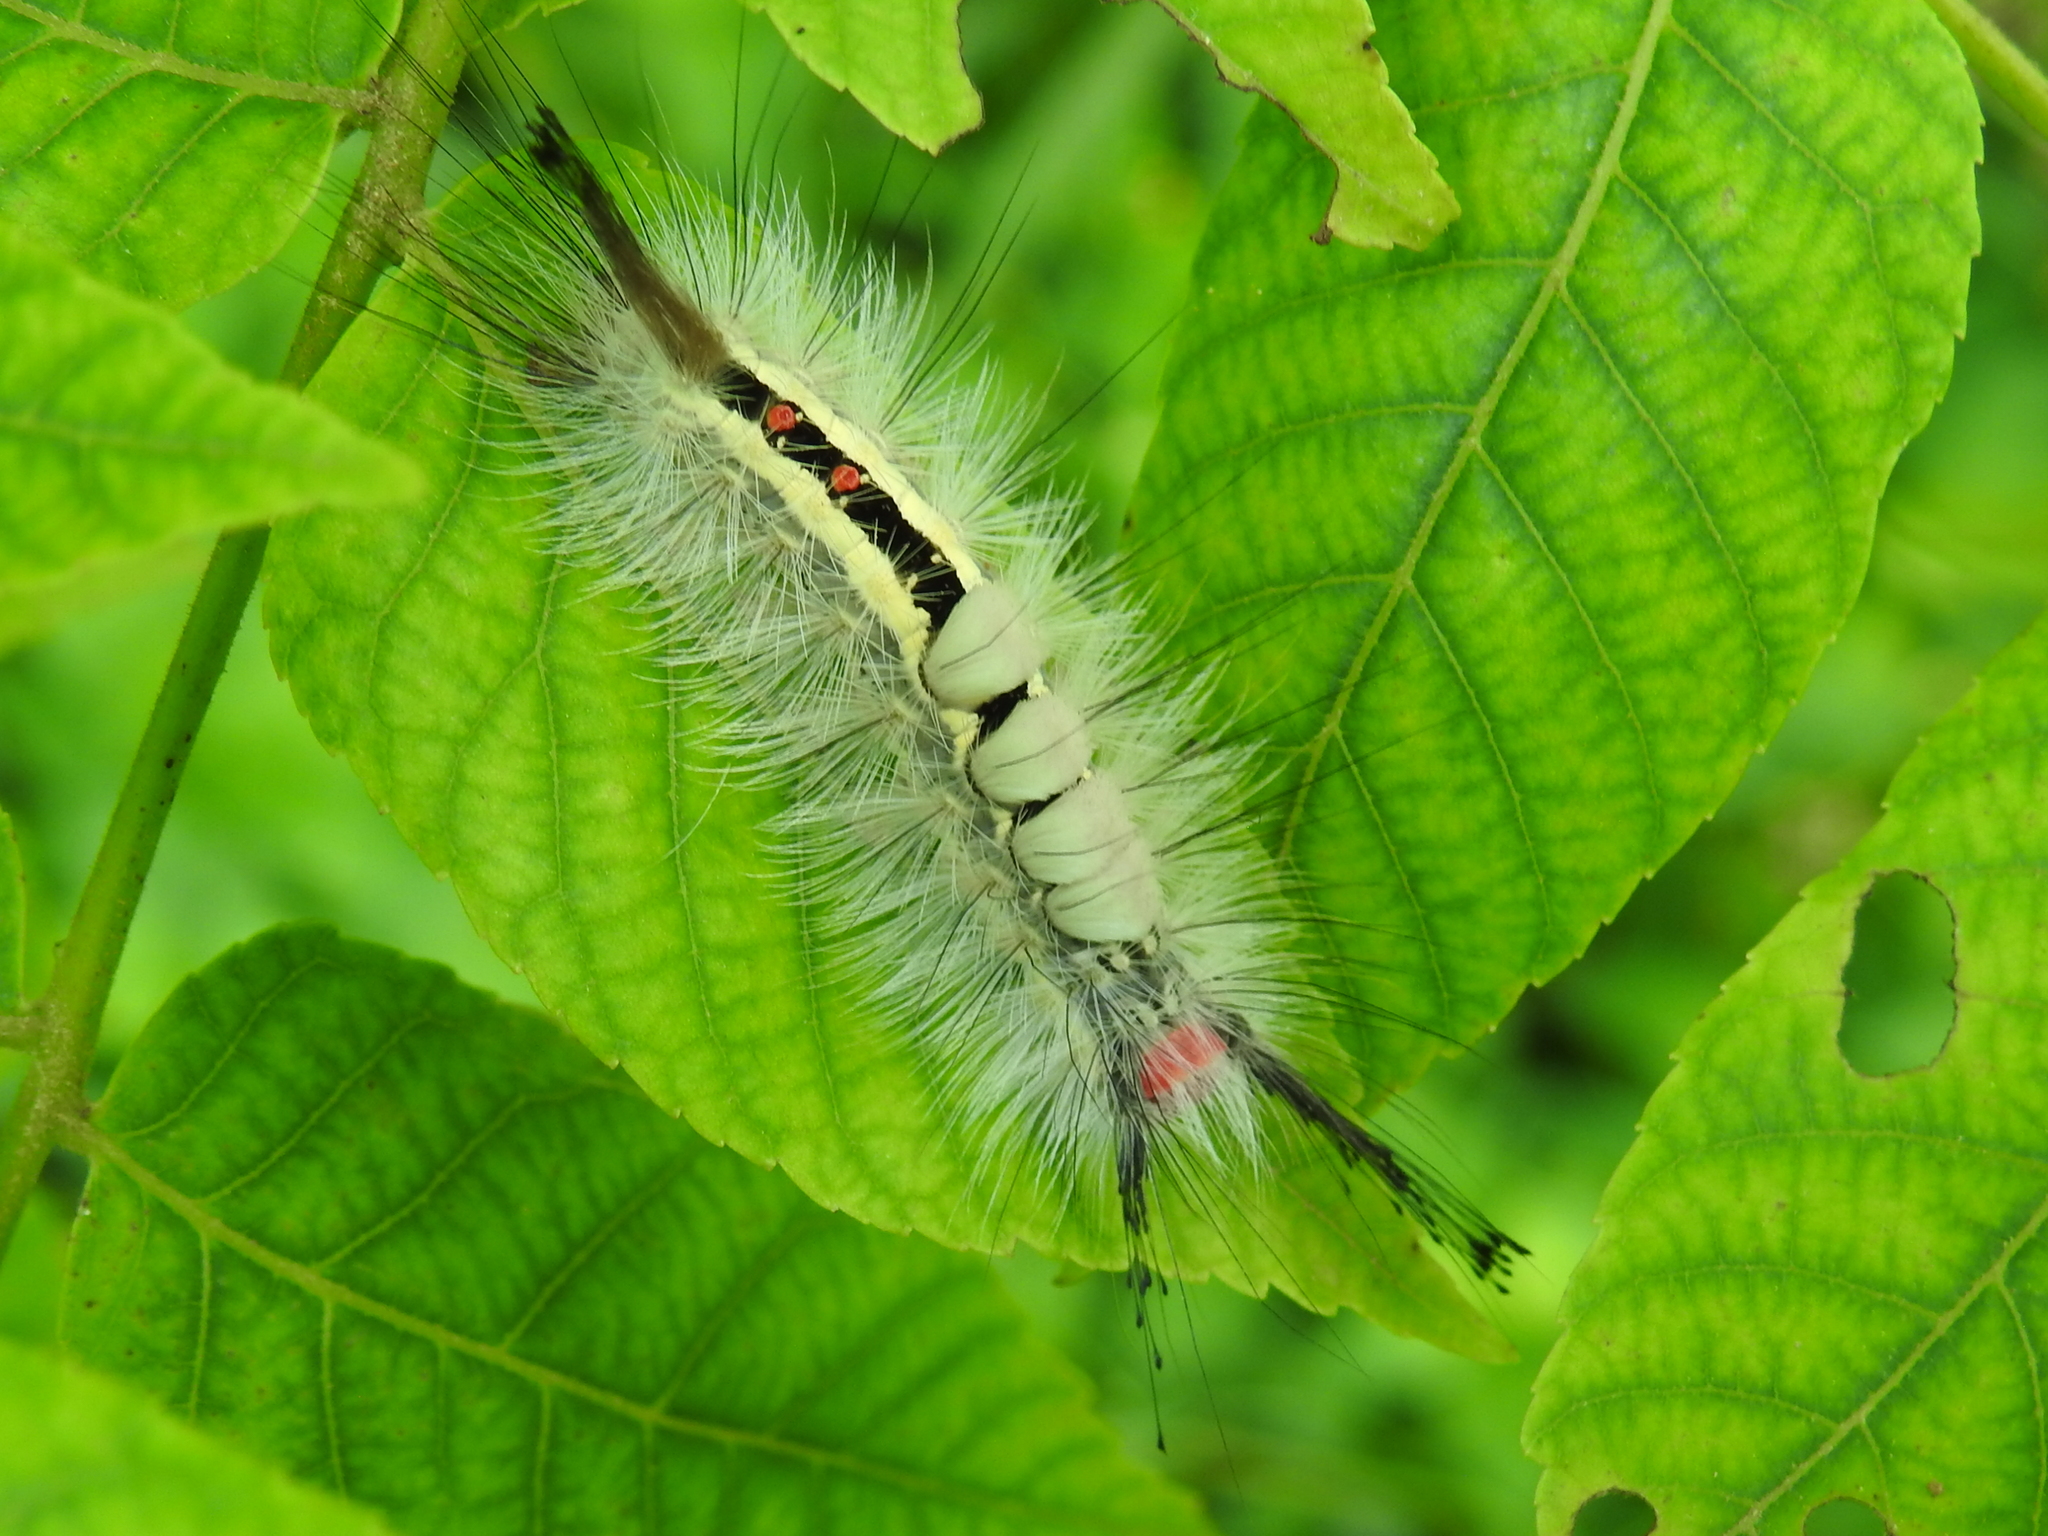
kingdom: Animalia
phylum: Arthropoda
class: Insecta
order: Lepidoptera
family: Erebidae
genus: Orgyia
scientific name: Orgyia leucostigma
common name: White-marked tussock moth
